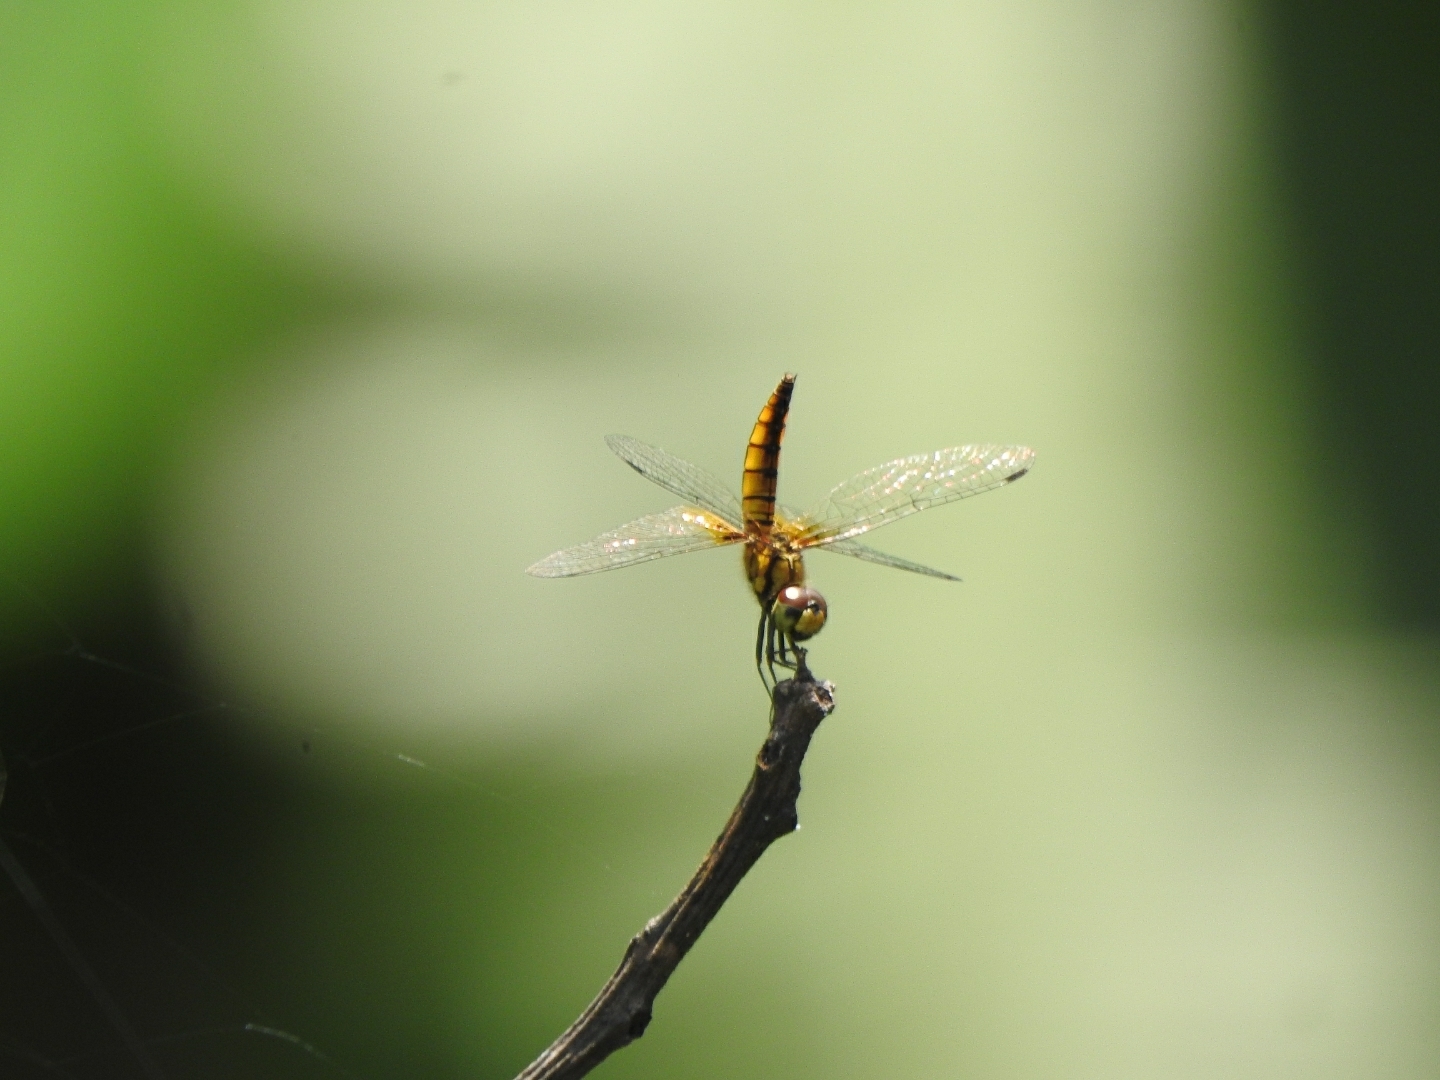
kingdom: Animalia
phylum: Arthropoda
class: Insecta
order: Odonata
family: Libellulidae
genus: Aethriamanta
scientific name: Aethriamanta brevipennis
